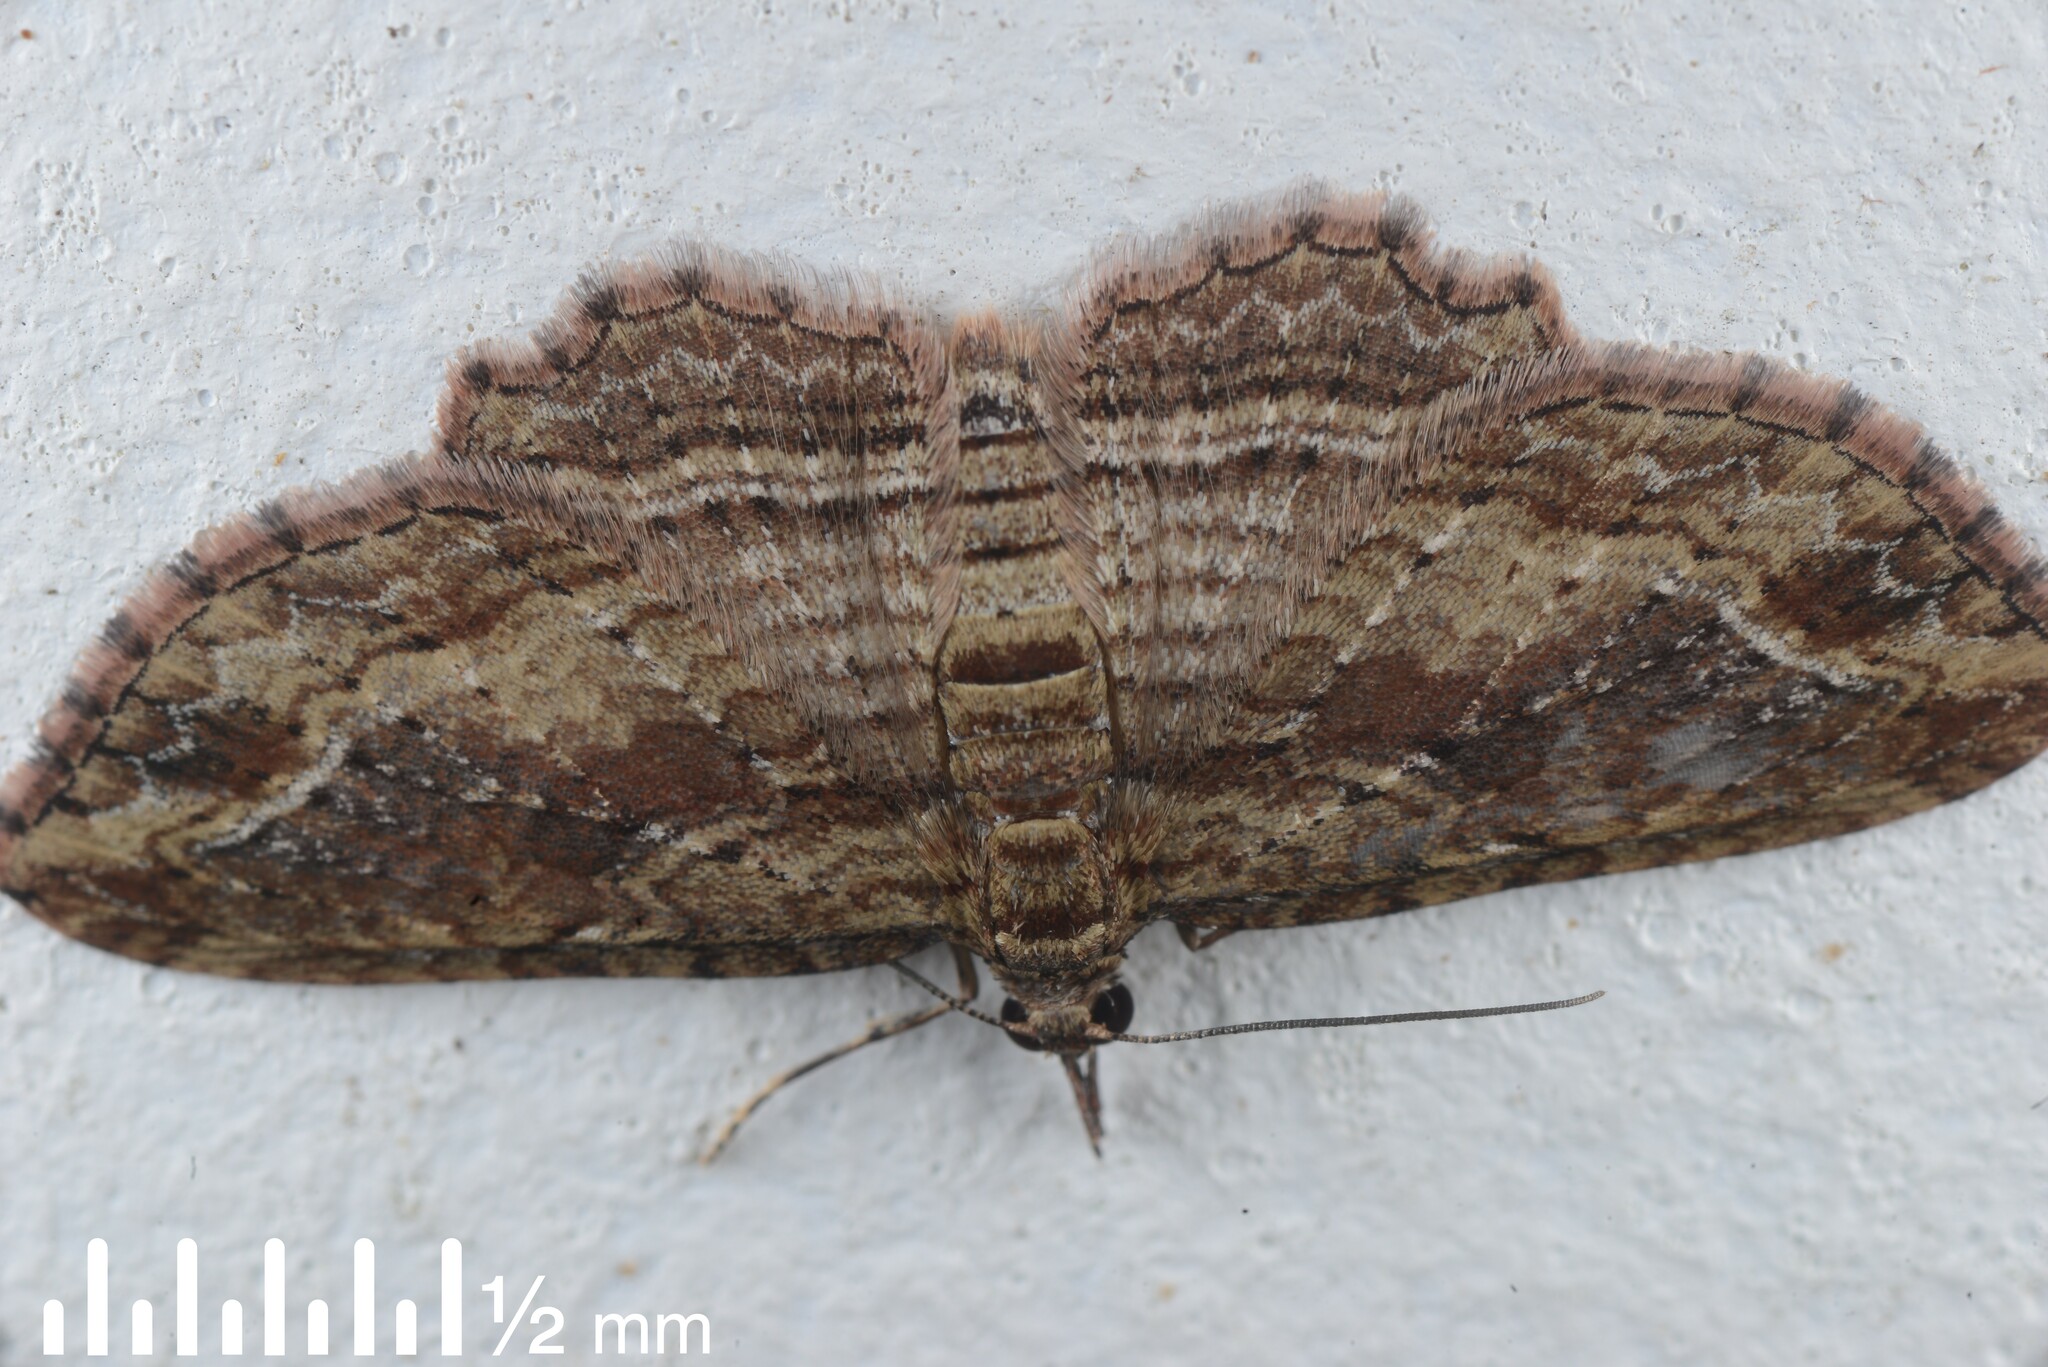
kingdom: Animalia
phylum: Arthropoda
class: Insecta
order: Lepidoptera
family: Geometridae
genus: Chloroclystis
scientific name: Chloroclystis filata
